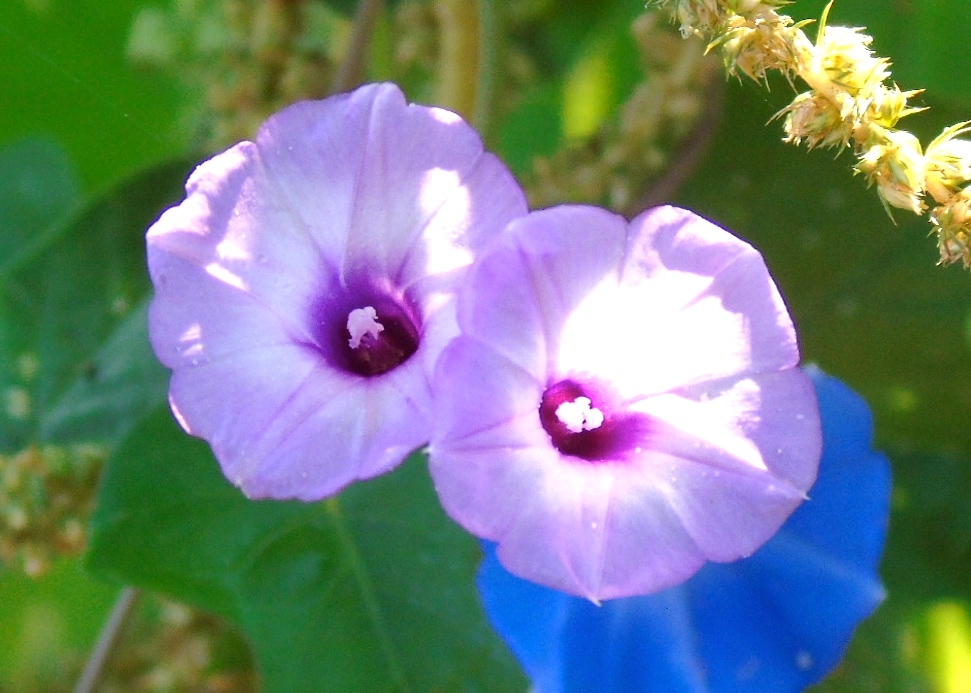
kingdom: Plantae
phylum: Tracheophyta
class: Magnoliopsida
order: Solanales
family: Convolvulaceae
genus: Ipomoea
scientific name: Ipomoea
